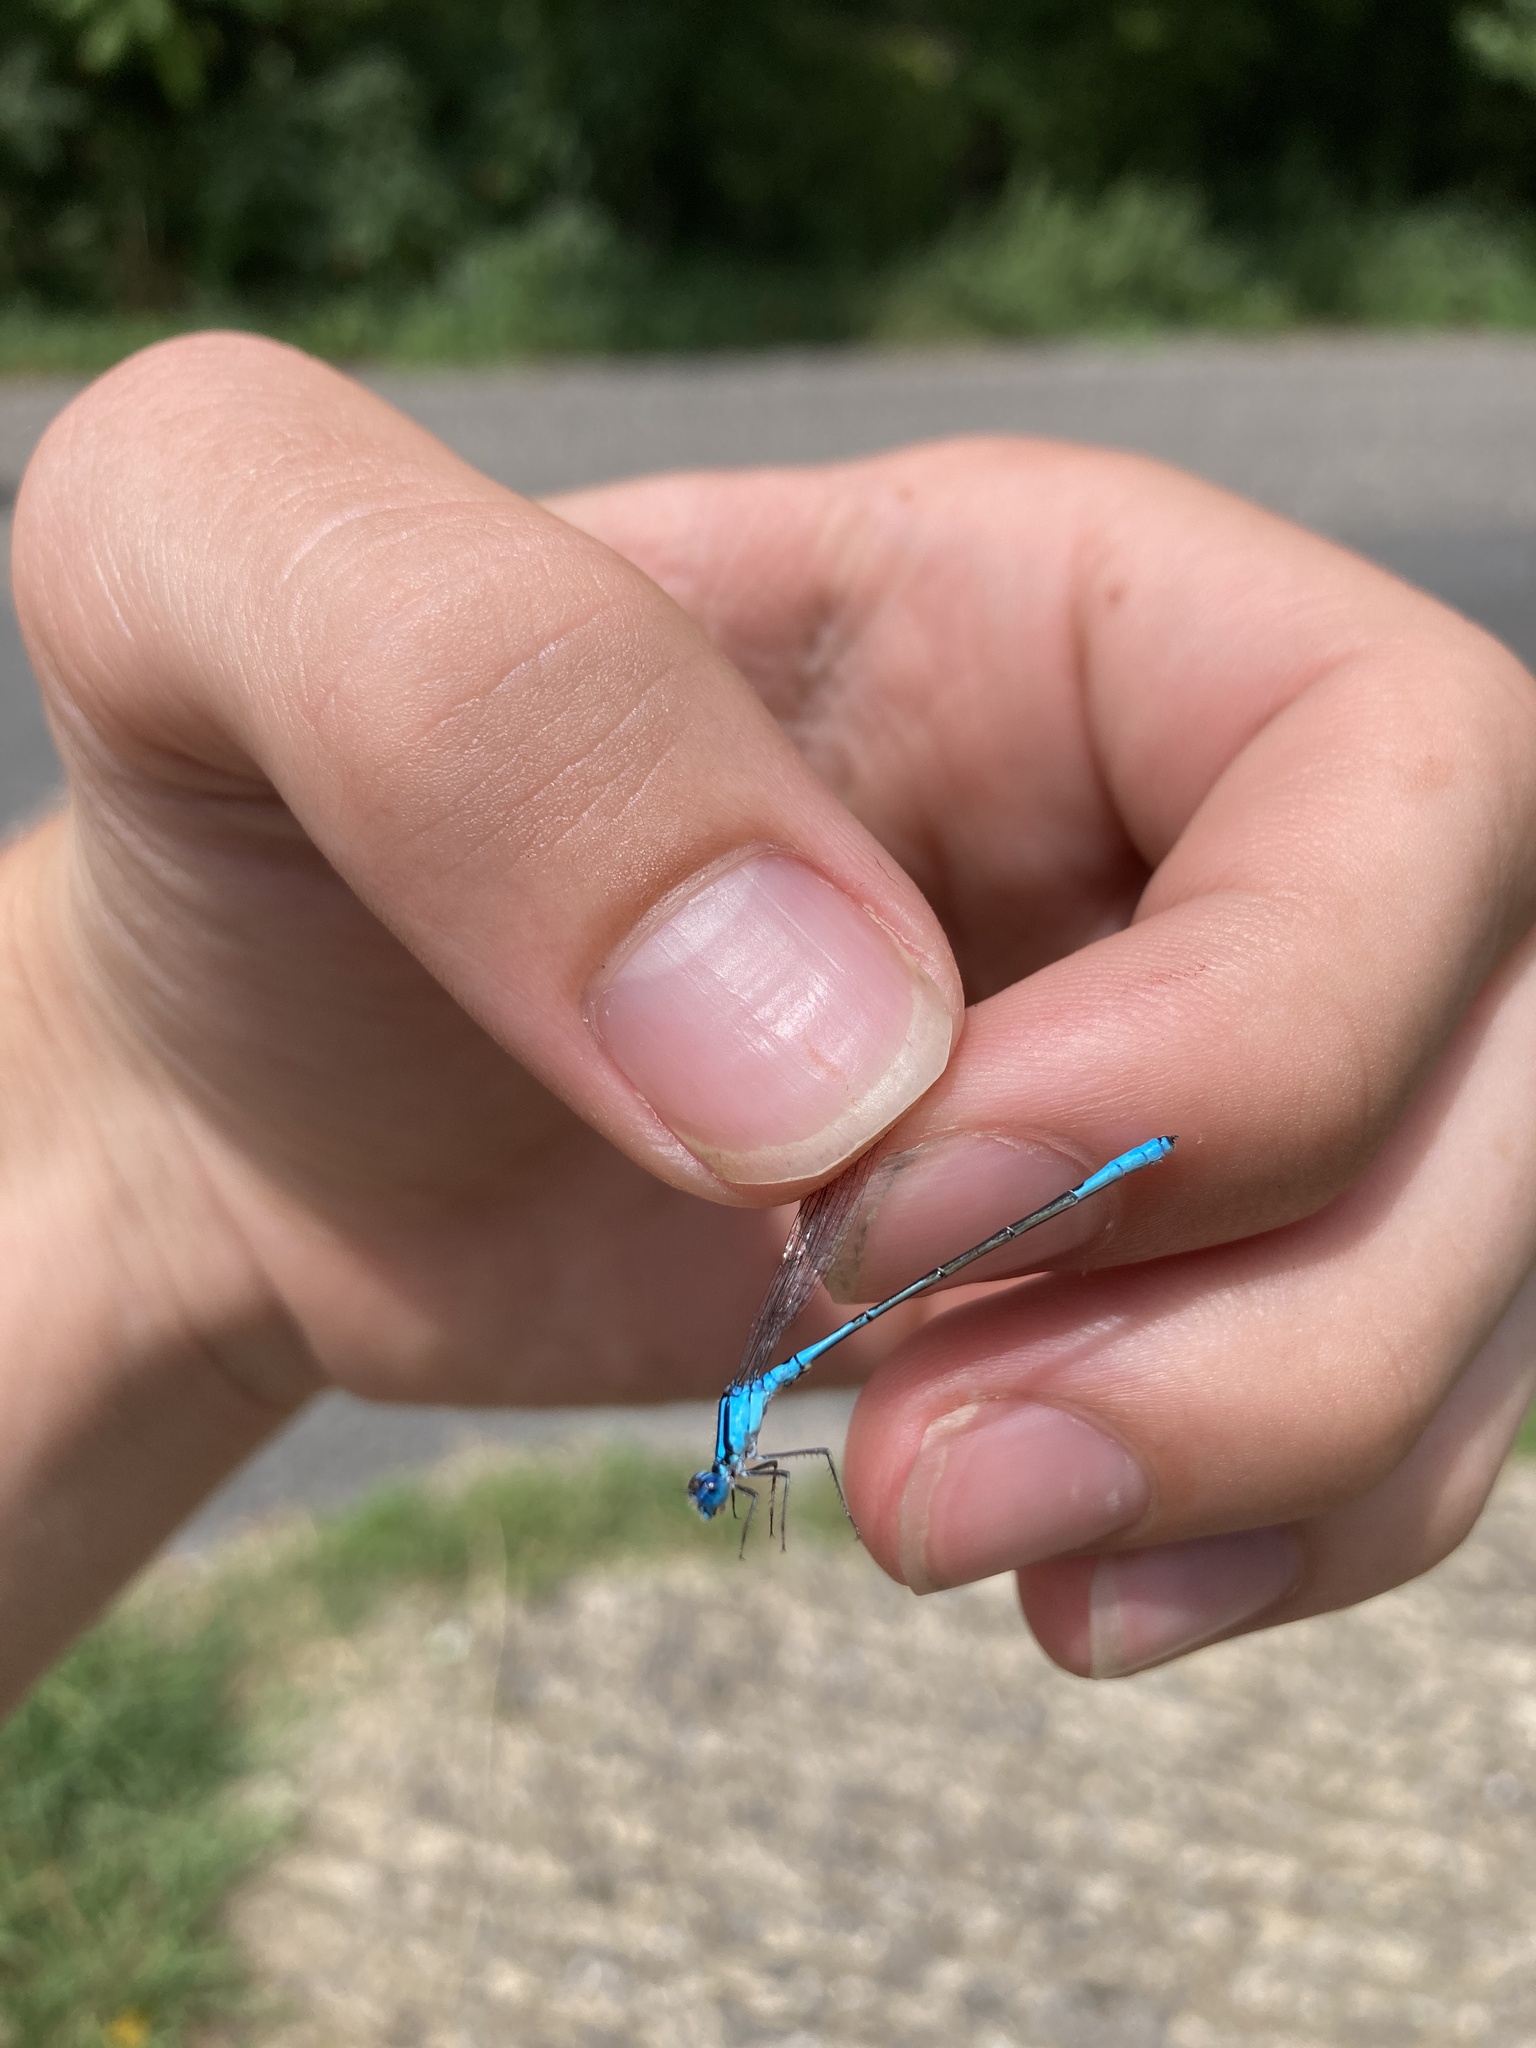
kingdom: Animalia
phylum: Arthropoda
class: Insecta
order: Odonata
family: Coenagrionidae
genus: Enallagma
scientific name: Enallagma aspersum
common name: Azure bluet
